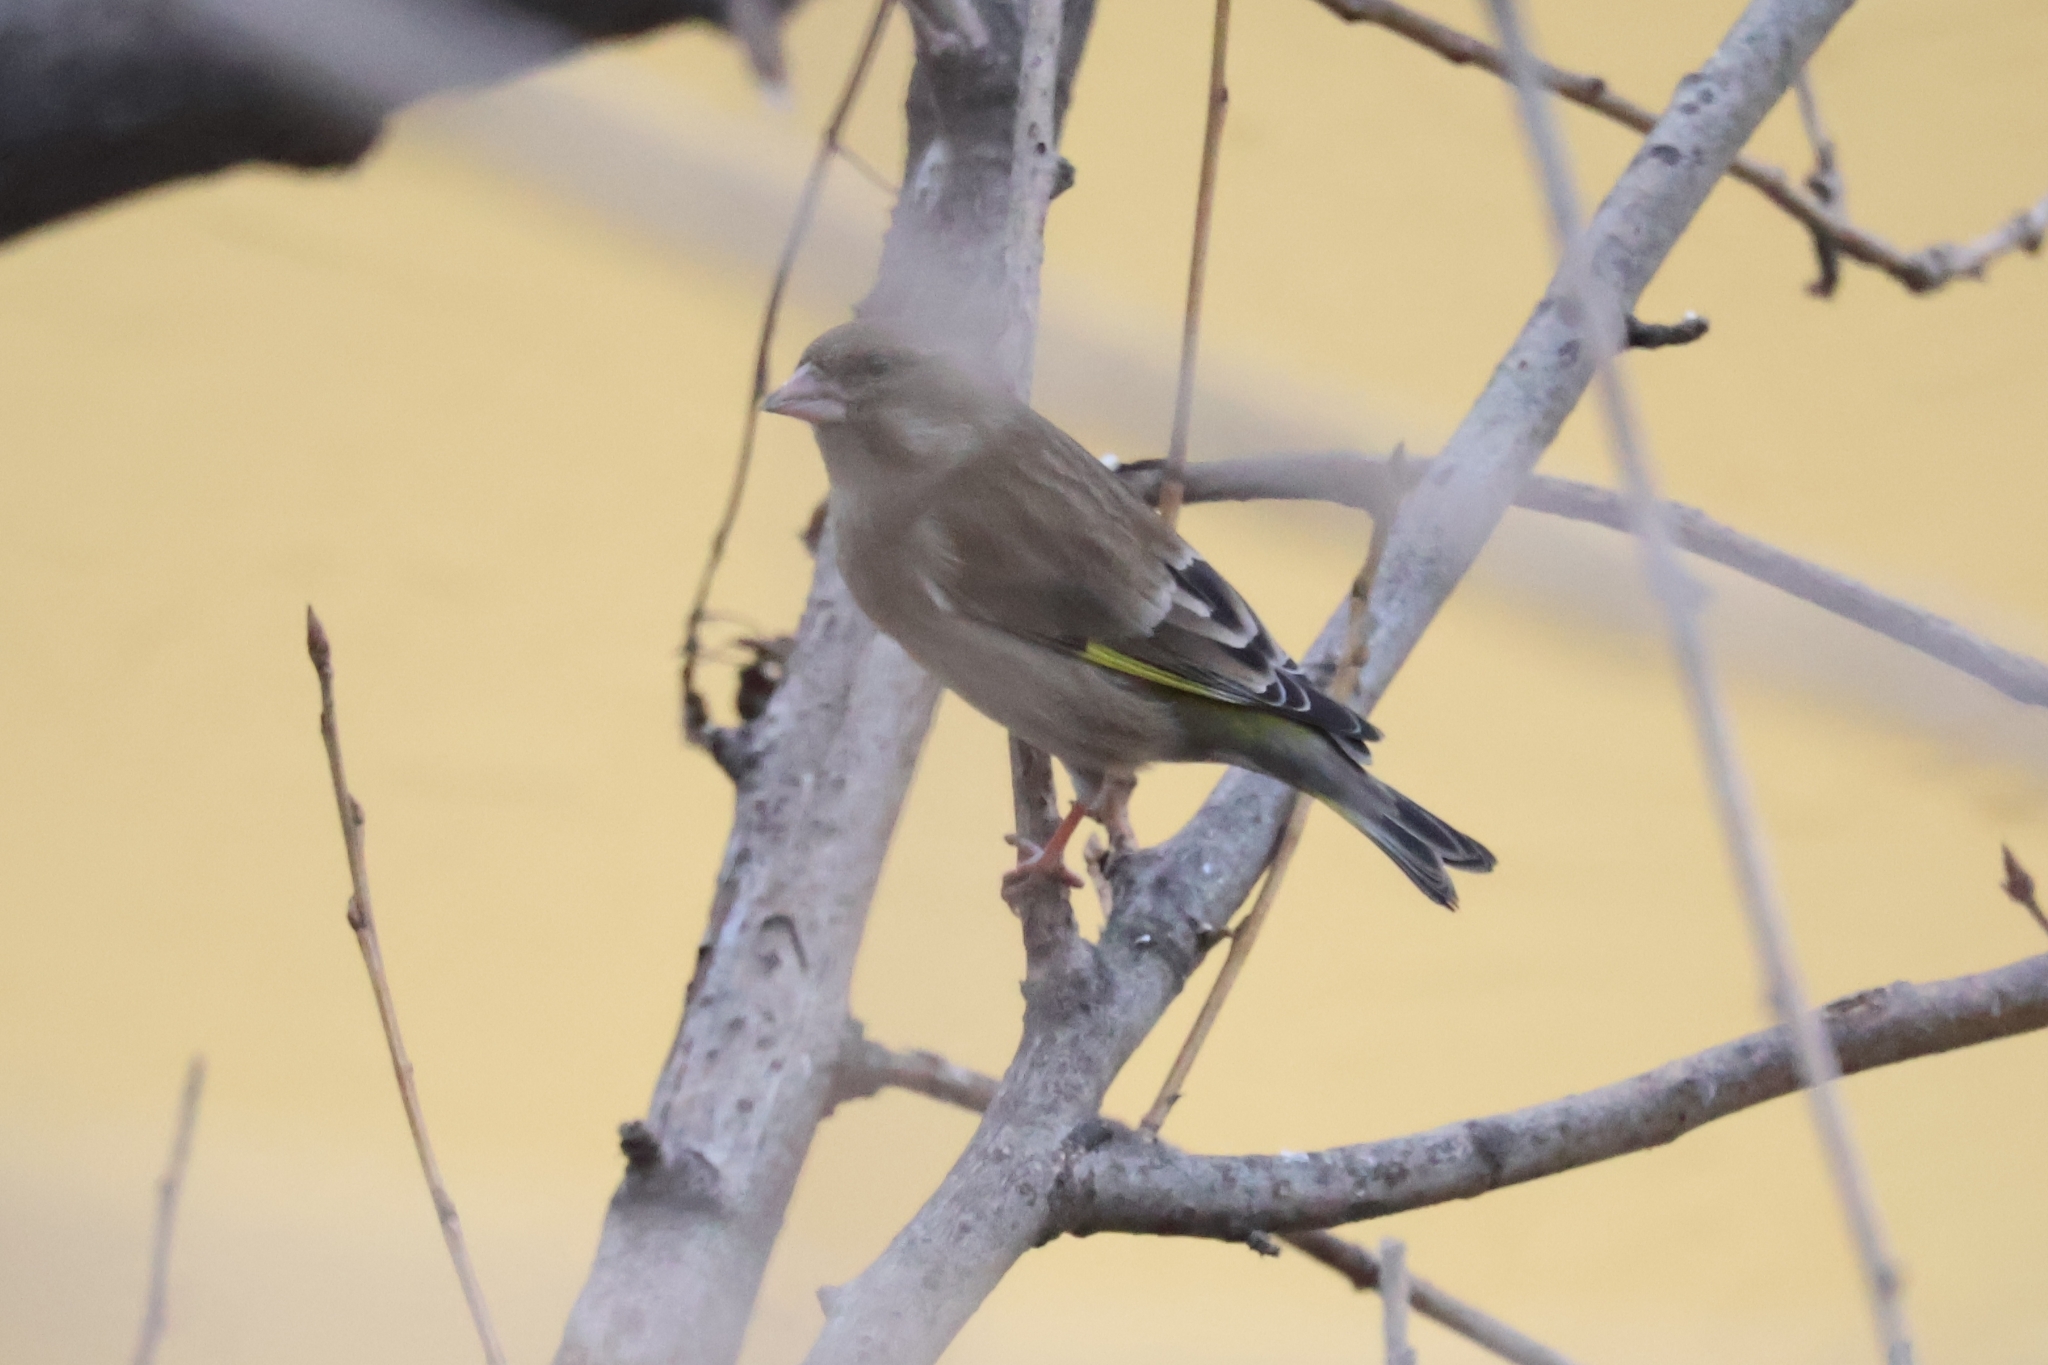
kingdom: Plantae
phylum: Tracheophyta
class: Liliopsida
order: Poales
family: Poaceae
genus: Chloris
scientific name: Chloris chloris
